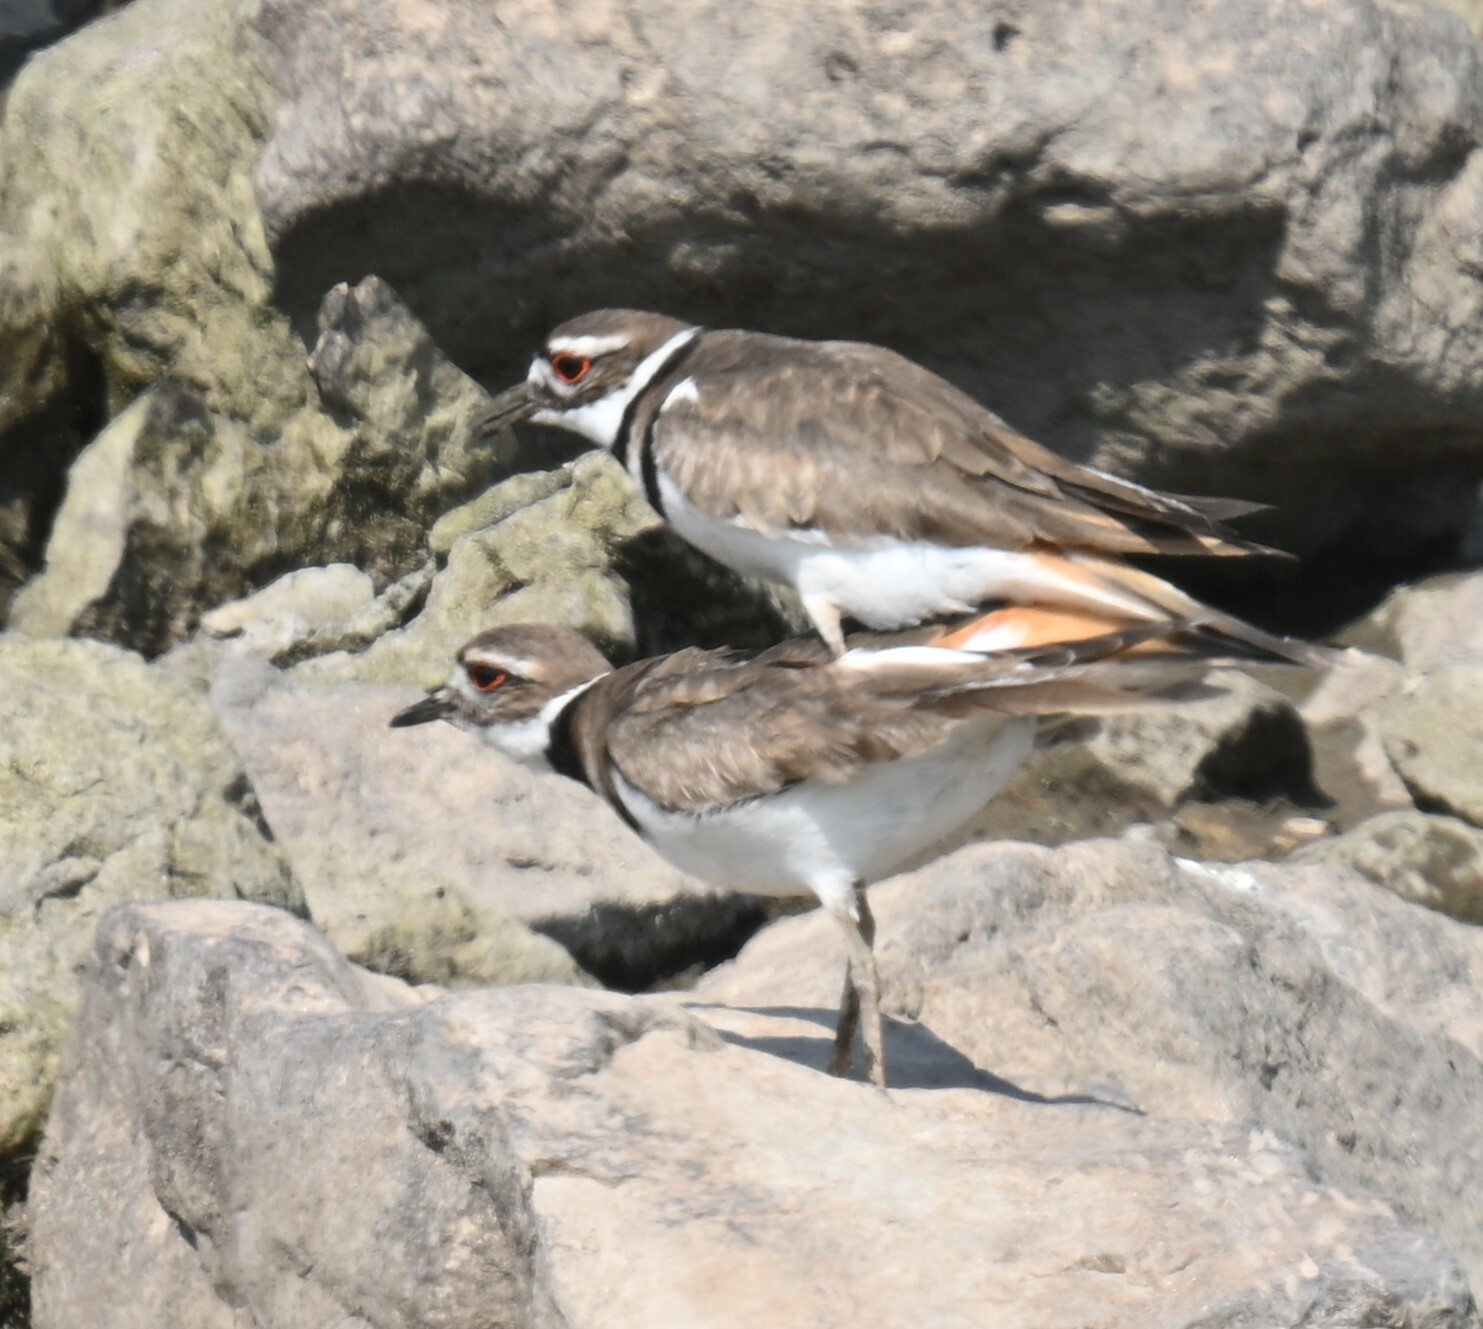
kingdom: Animalia
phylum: Chordata
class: Aves
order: Charadriiformes
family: Charadriidae
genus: Charadrius
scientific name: Charadrius vociferus
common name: Killdeer
